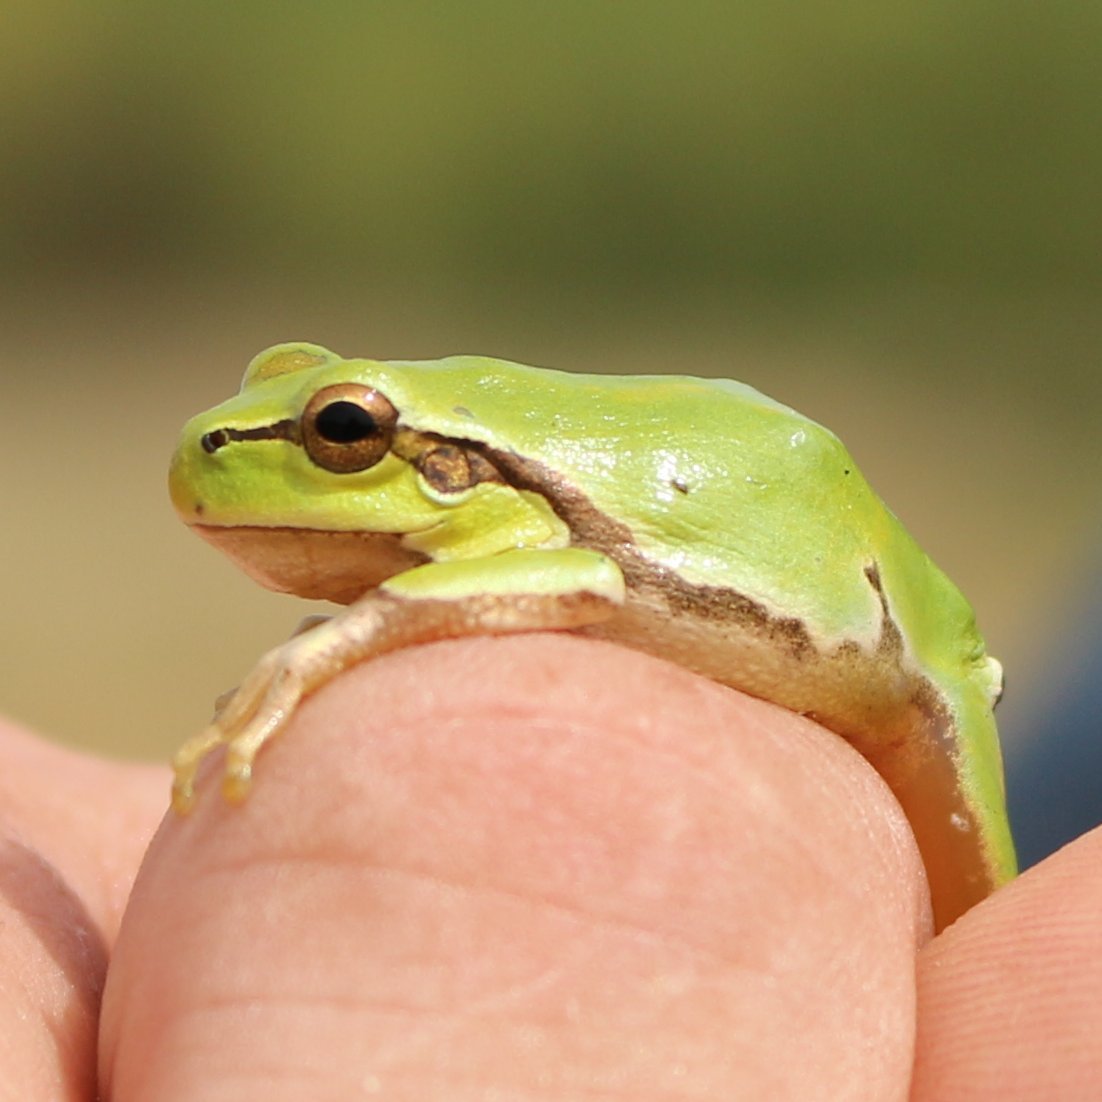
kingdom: Animalia
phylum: Chordata
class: Amphibia
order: Anura
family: Hylidae
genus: Hyla
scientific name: Hyla orientalis
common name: Caucasian treefrog
